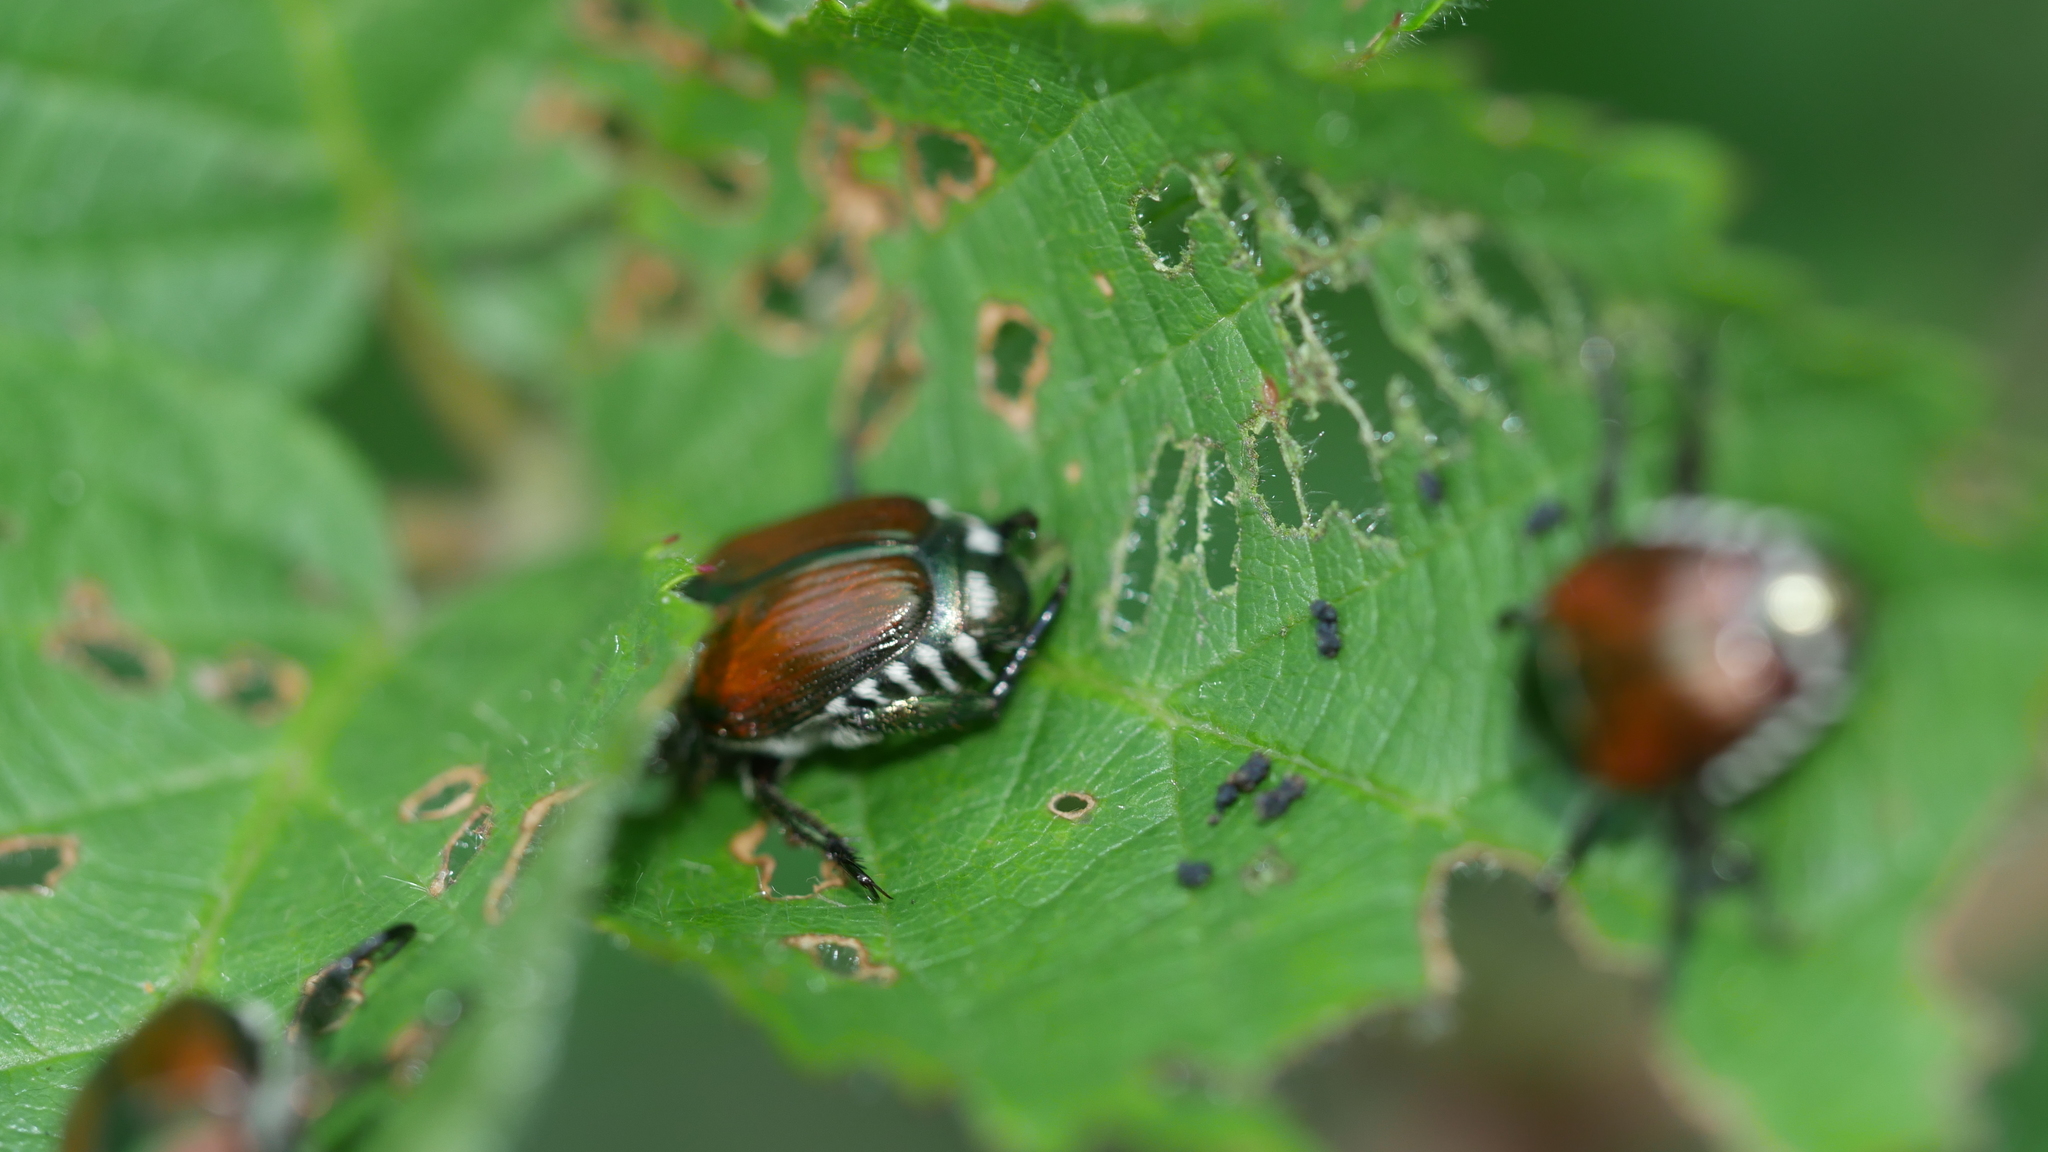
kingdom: Animalia
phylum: Arthropoda
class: Insecta
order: Coleoptera
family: Scarabaeidae
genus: Popillia
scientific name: Popillia japonica
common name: Japanese beetle
